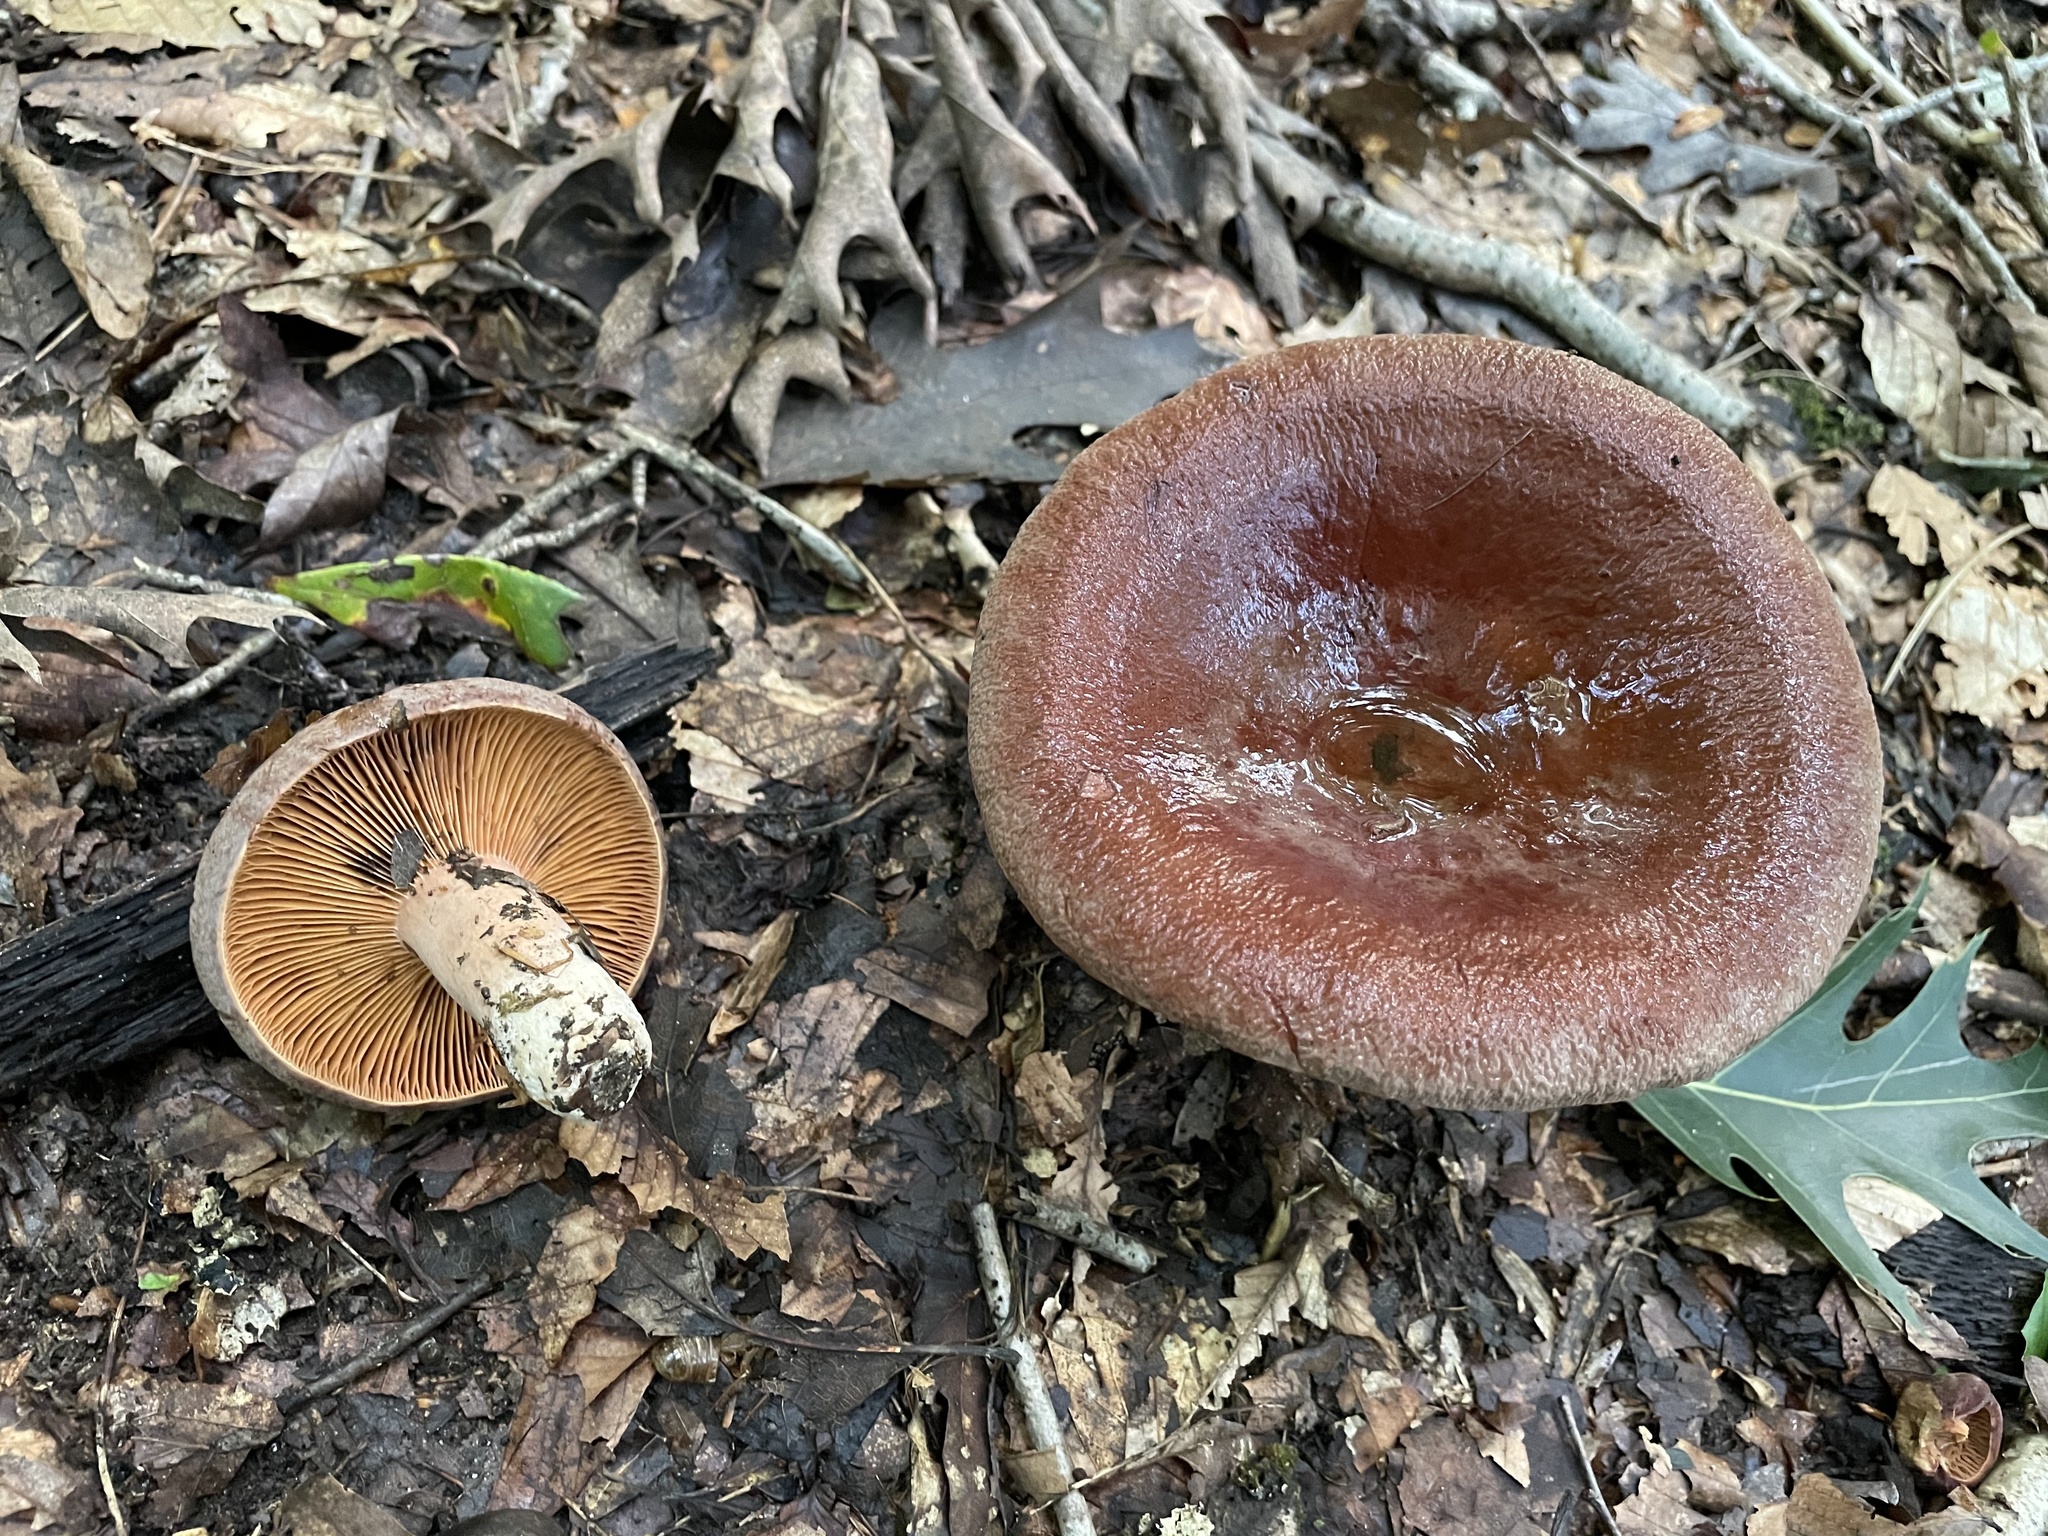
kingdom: Fungi
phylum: Basidiomycota
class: Agaricomycetes
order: Russulales
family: Russulaceae
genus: Lactarius
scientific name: Lactarius corrugis
